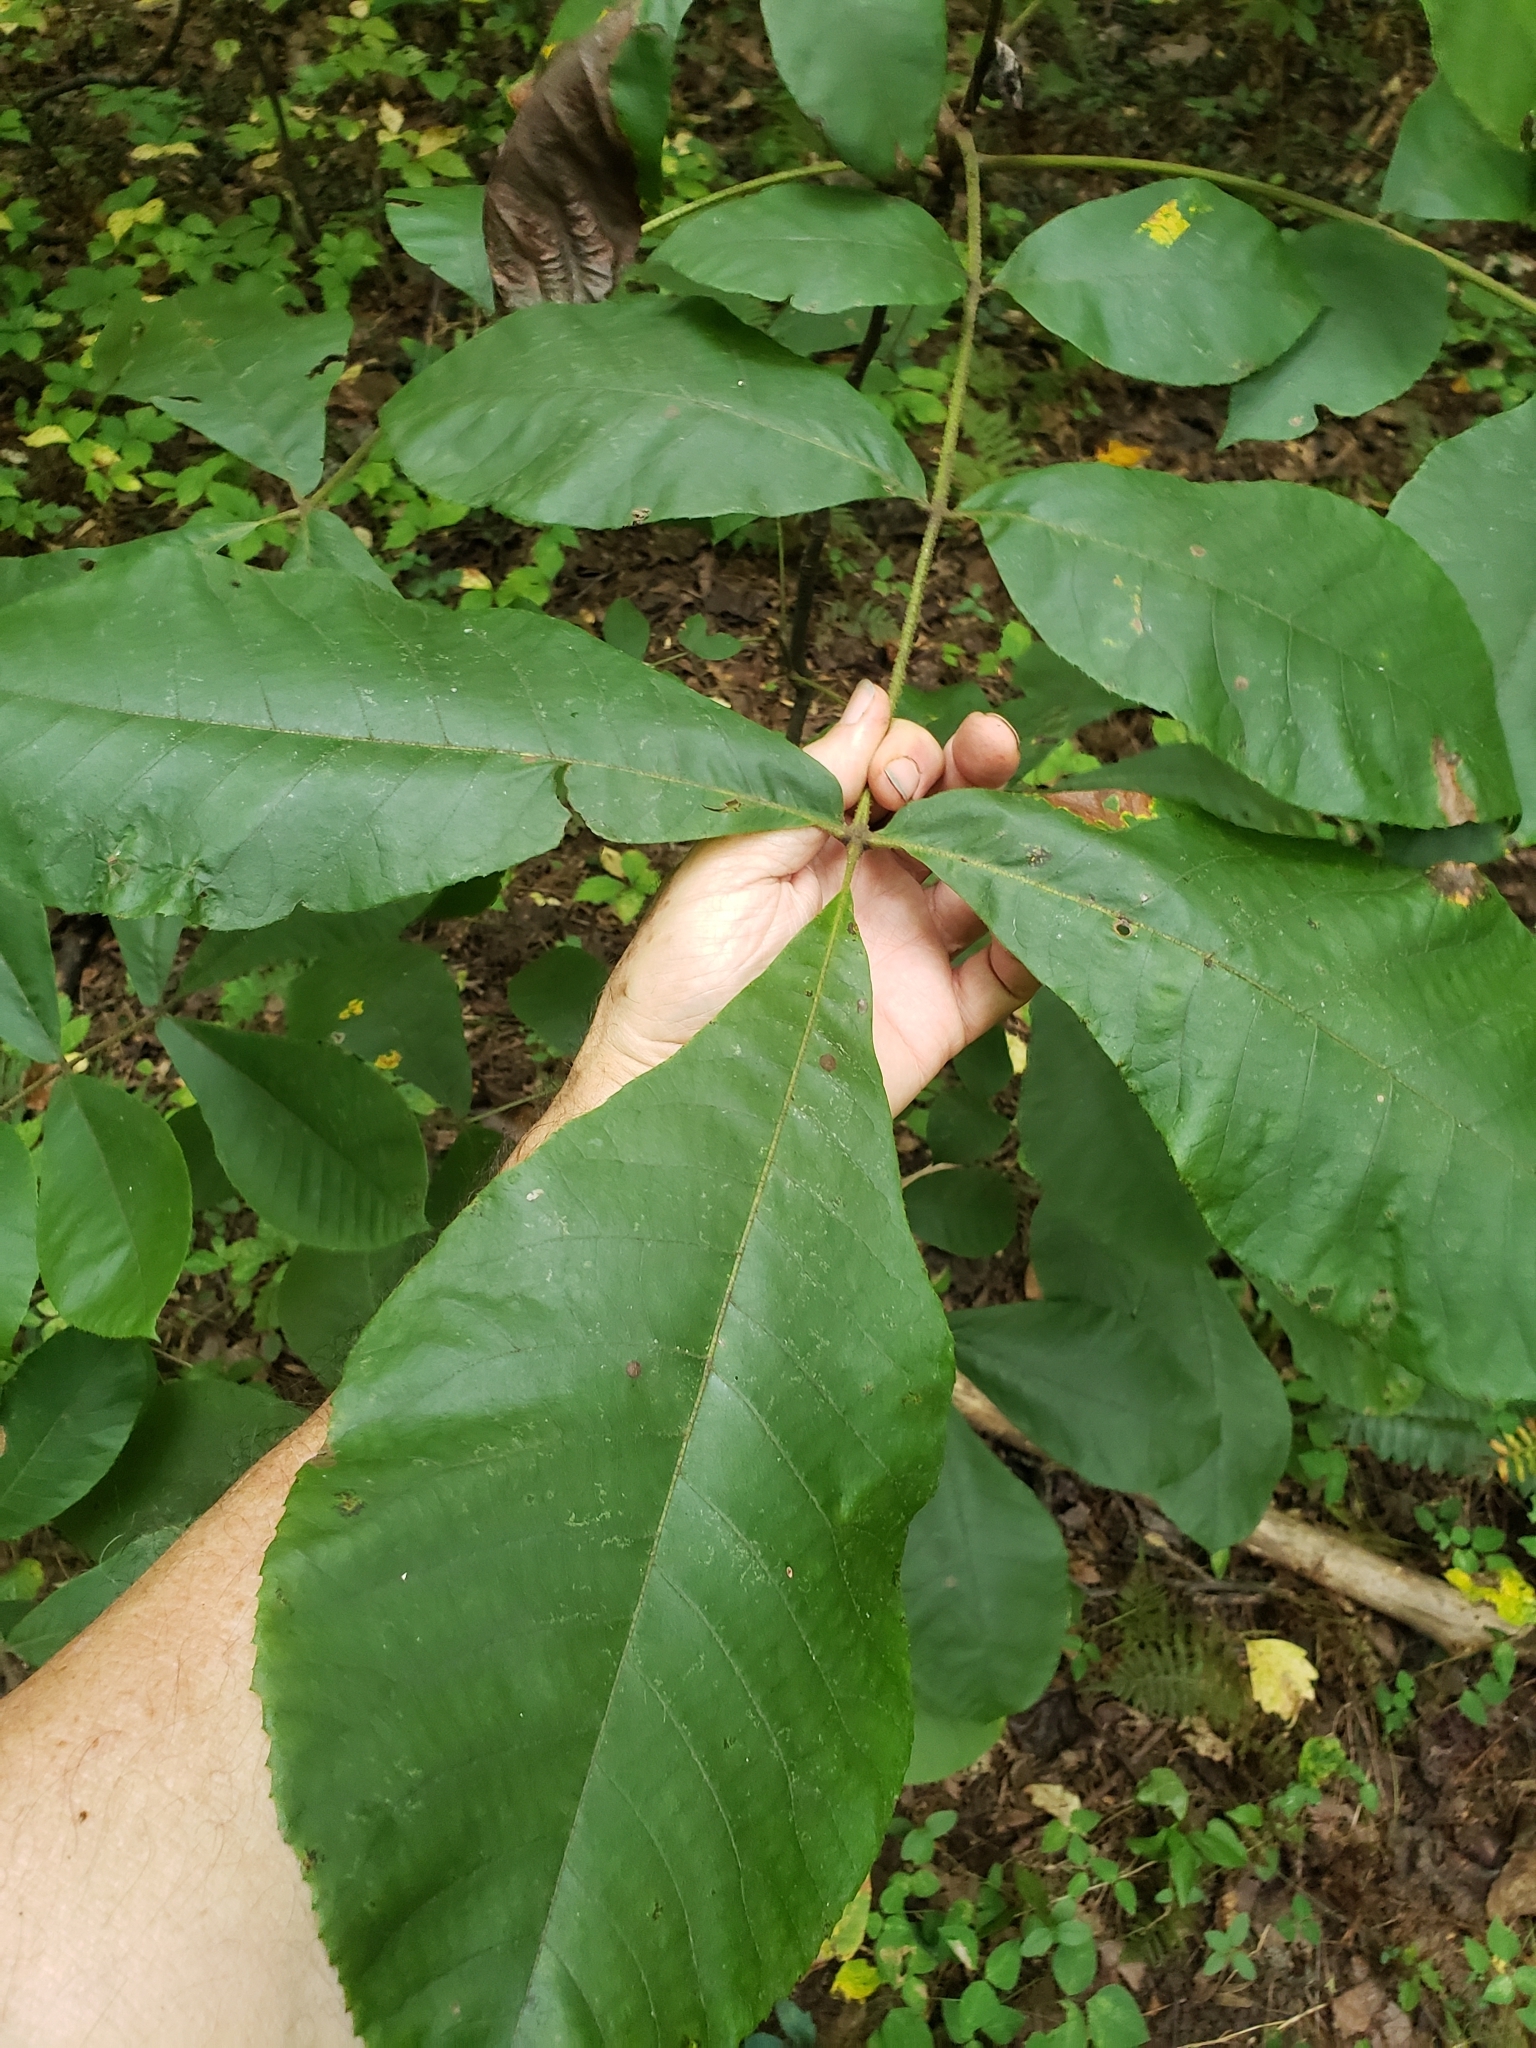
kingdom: Animalia
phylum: Arthropoda
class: Insecta
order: Diptera
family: Cecidomyiidae
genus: Caryomyia
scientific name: Caryomyia thompsoni
